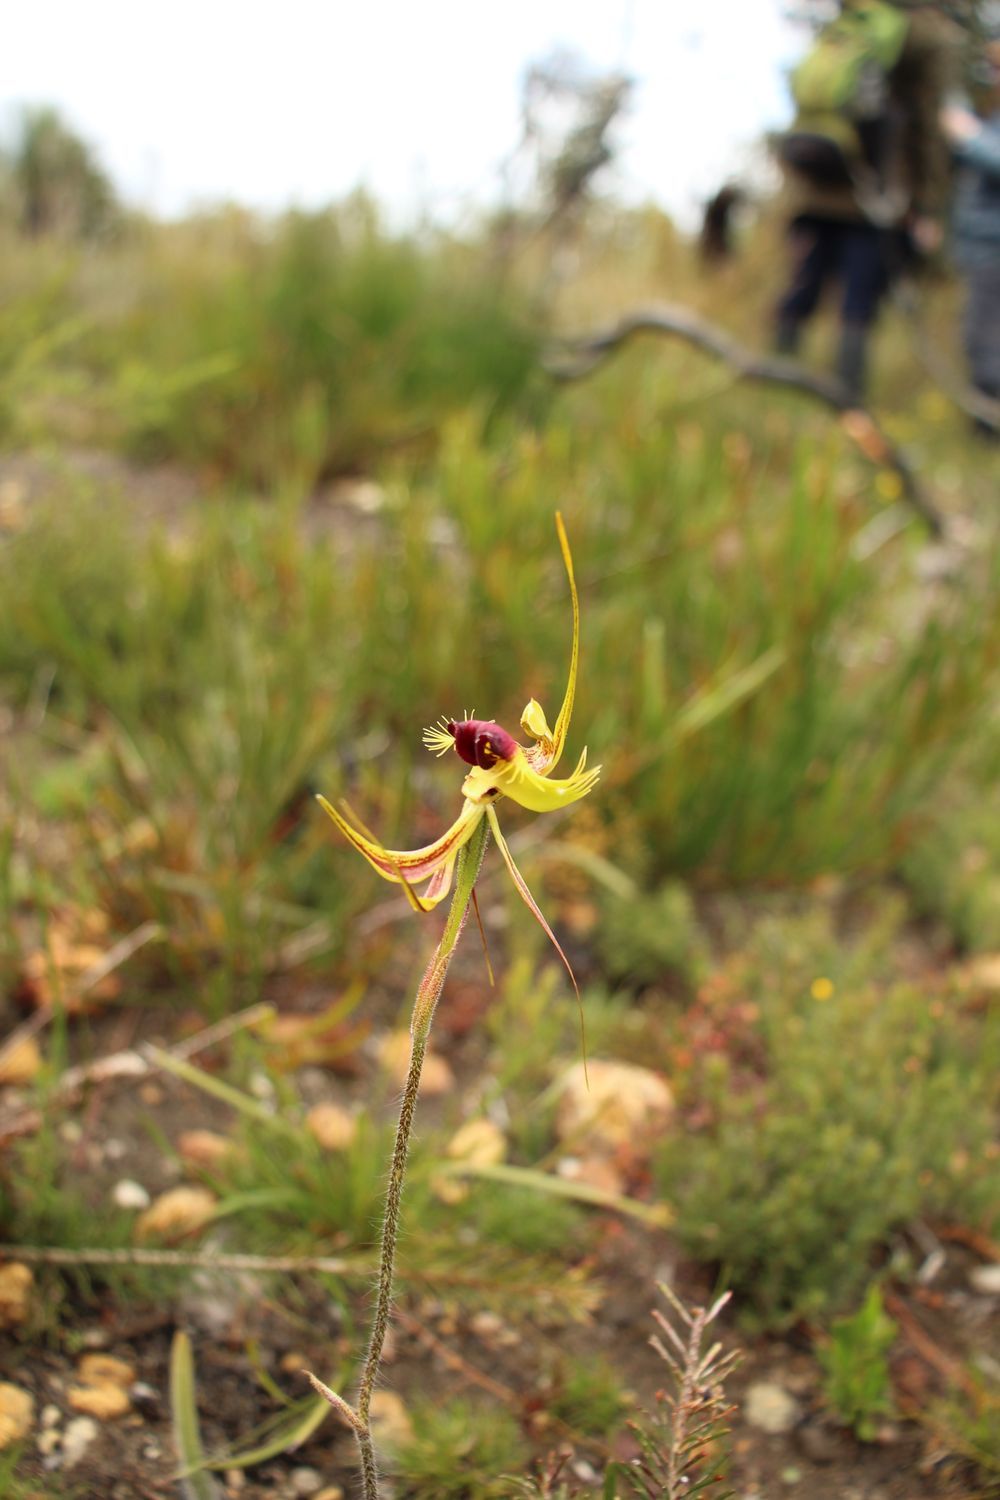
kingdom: Plantae
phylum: Tracheophyta
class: Liliopsida
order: Asparagales
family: Orchidaceae
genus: Caladenia
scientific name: Caladenia lobata
